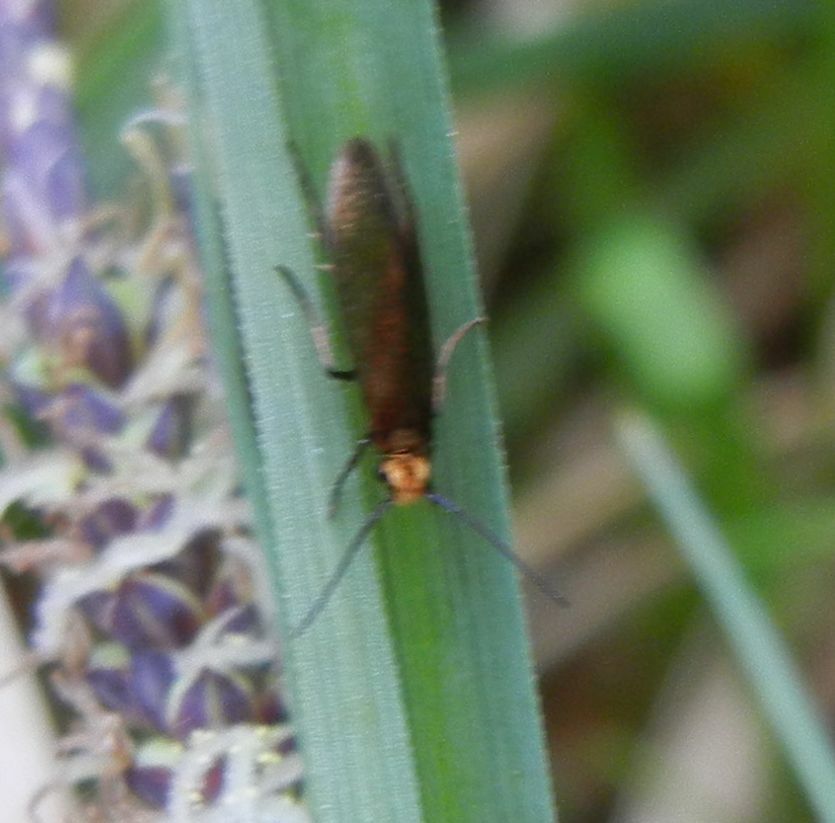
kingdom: Animalia
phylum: Arthropoda
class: Insecta
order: Lepidoptera
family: Micropterigidae
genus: Micropterix
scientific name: Micropterix calthella
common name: Plain gold
